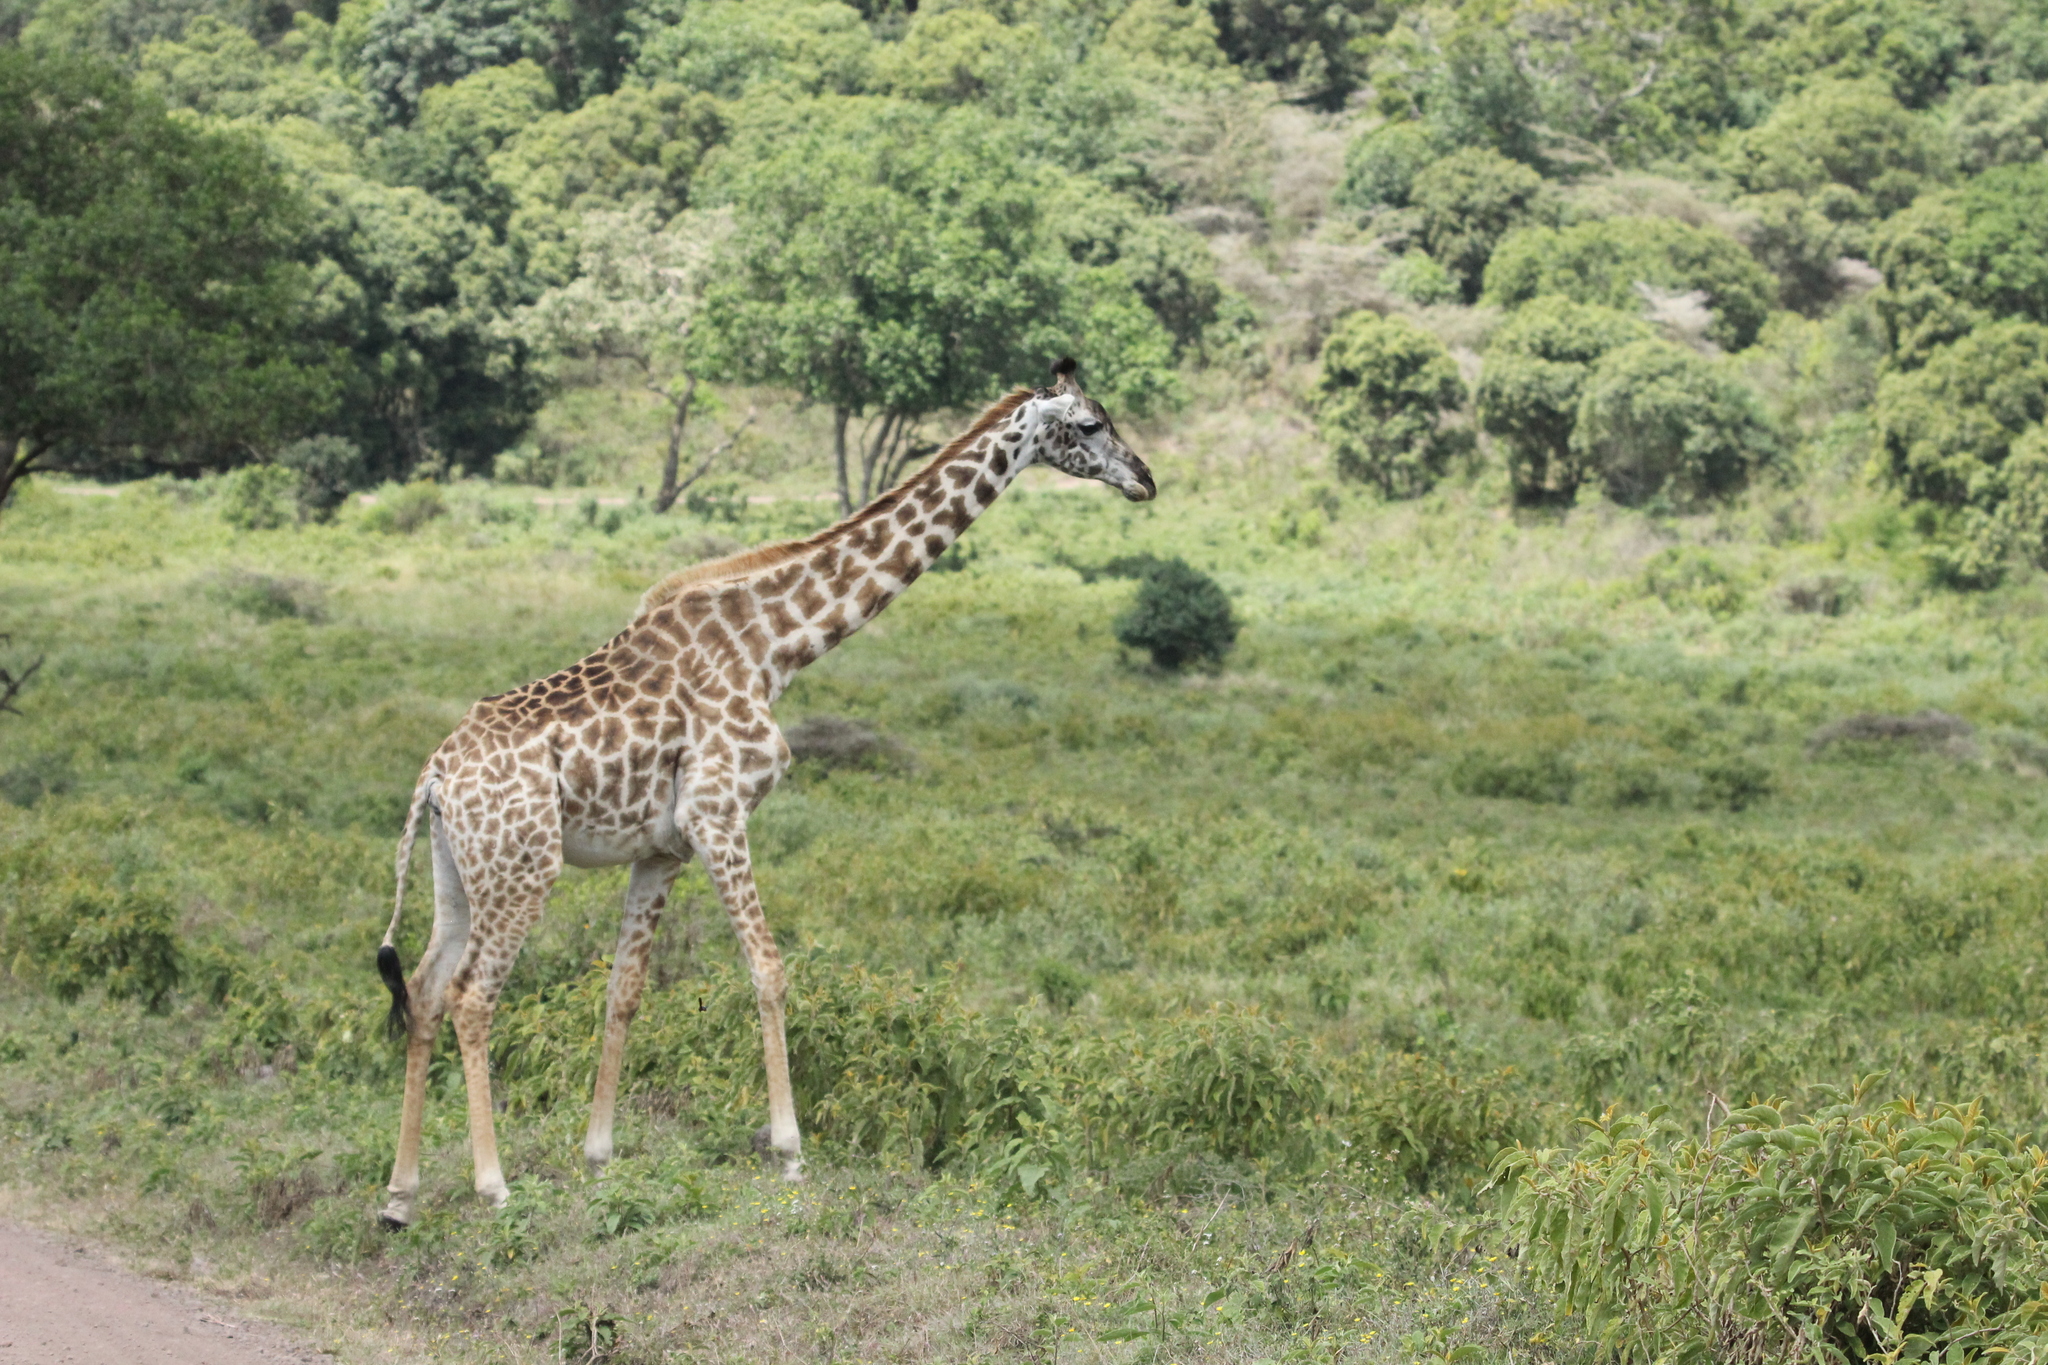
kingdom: Animalia
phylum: Chordata
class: Mammalia
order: Artiodactyla
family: Giraffidae
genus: Giraffa
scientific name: Giraffa tippelskirchi
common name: Masai giraffe
